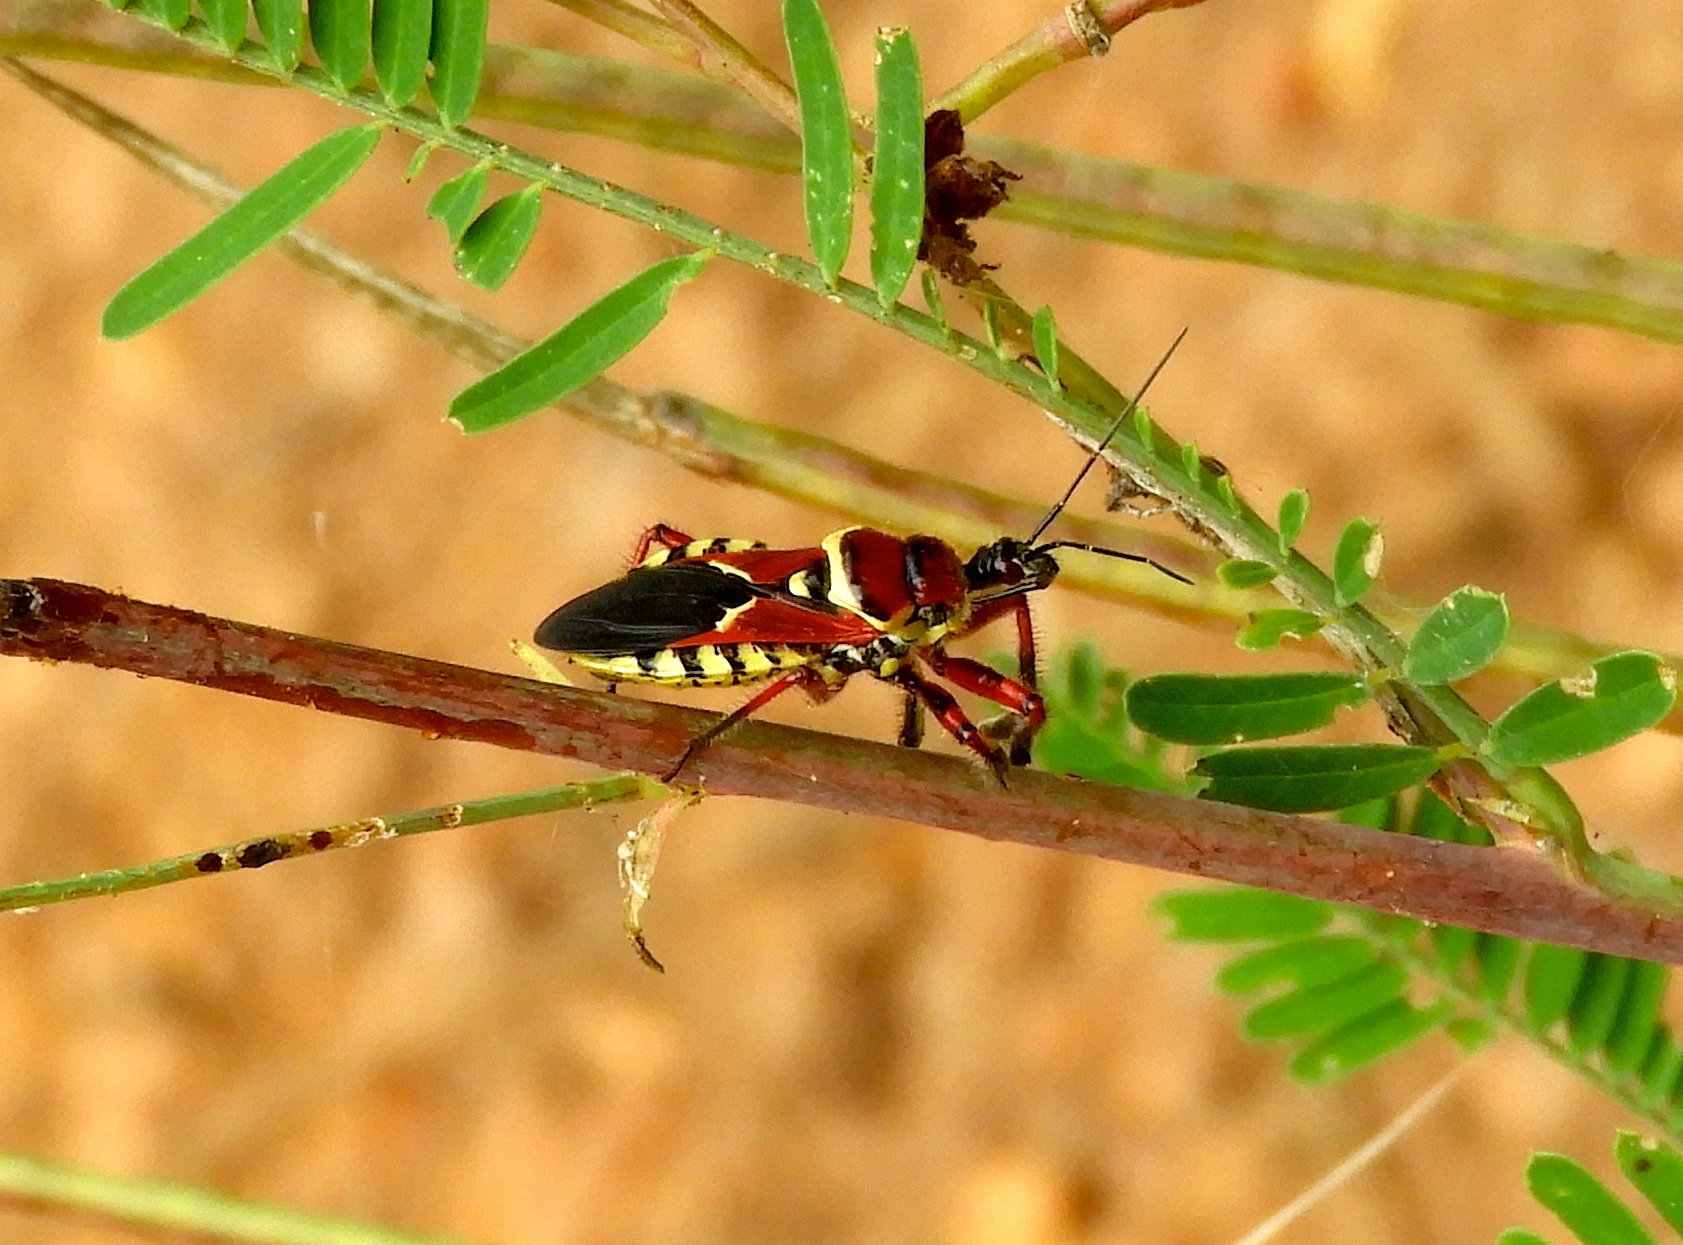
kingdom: Animalia
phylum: Arthropoda
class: Insecta
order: Hemiptera
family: Reduviidae
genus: Apiomerus
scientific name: Apiomerus flaviventris
